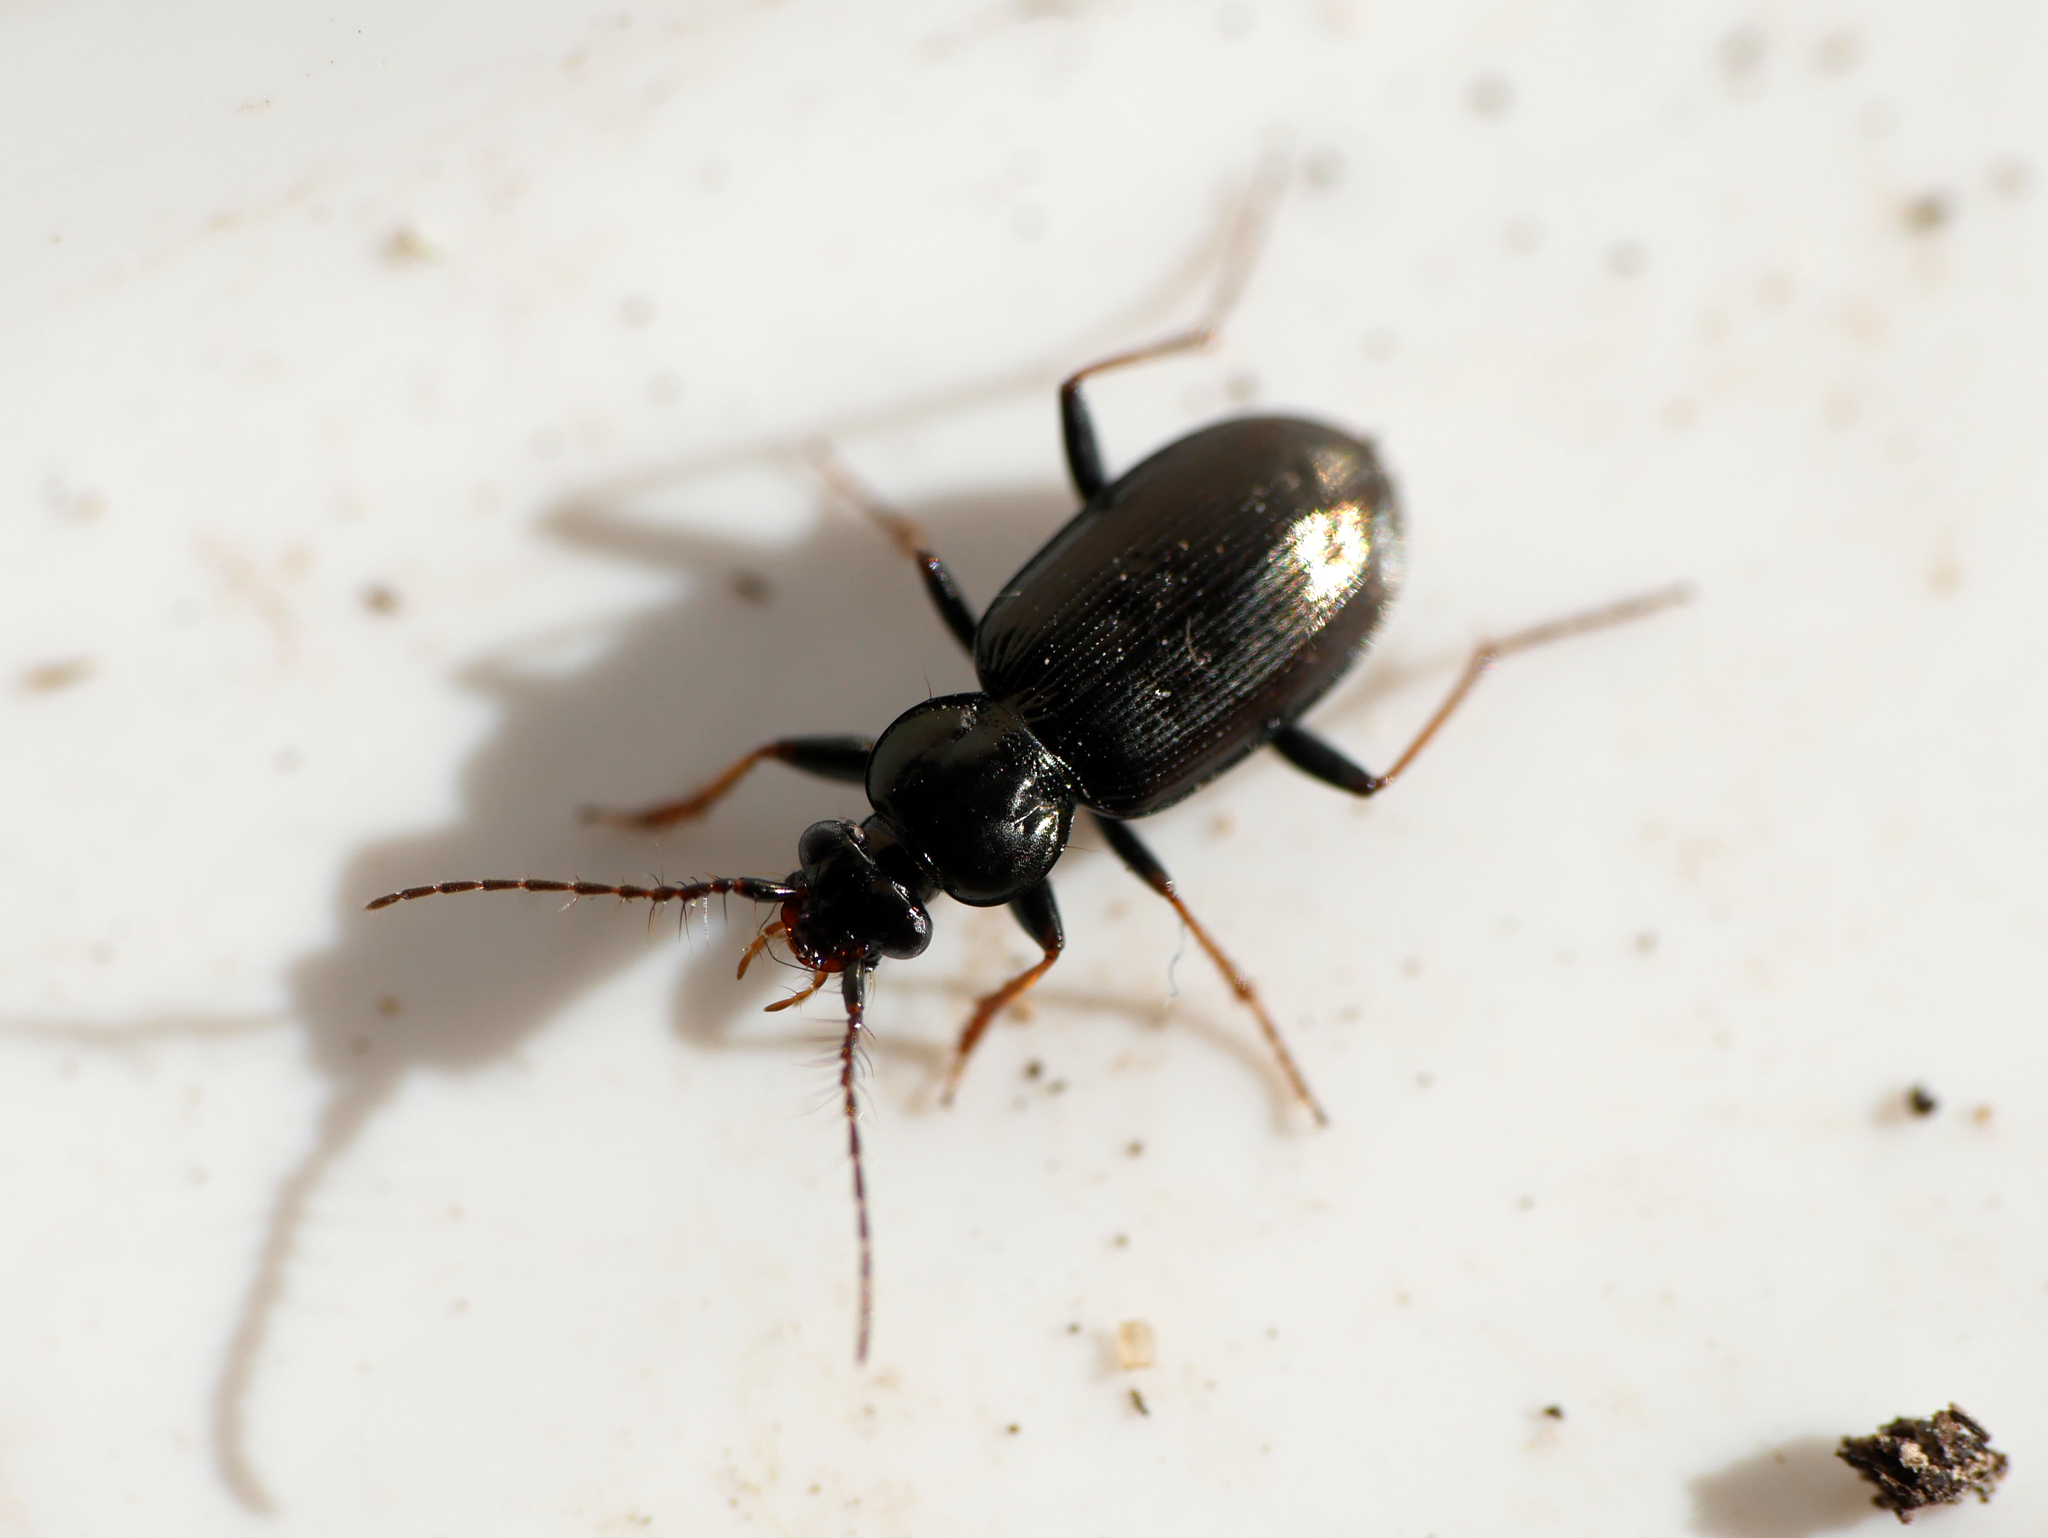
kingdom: Animalia
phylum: Arthropoda
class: Insecta
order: Coleoptera
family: Carabidae
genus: Loricera
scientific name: Loricera pilicornis
